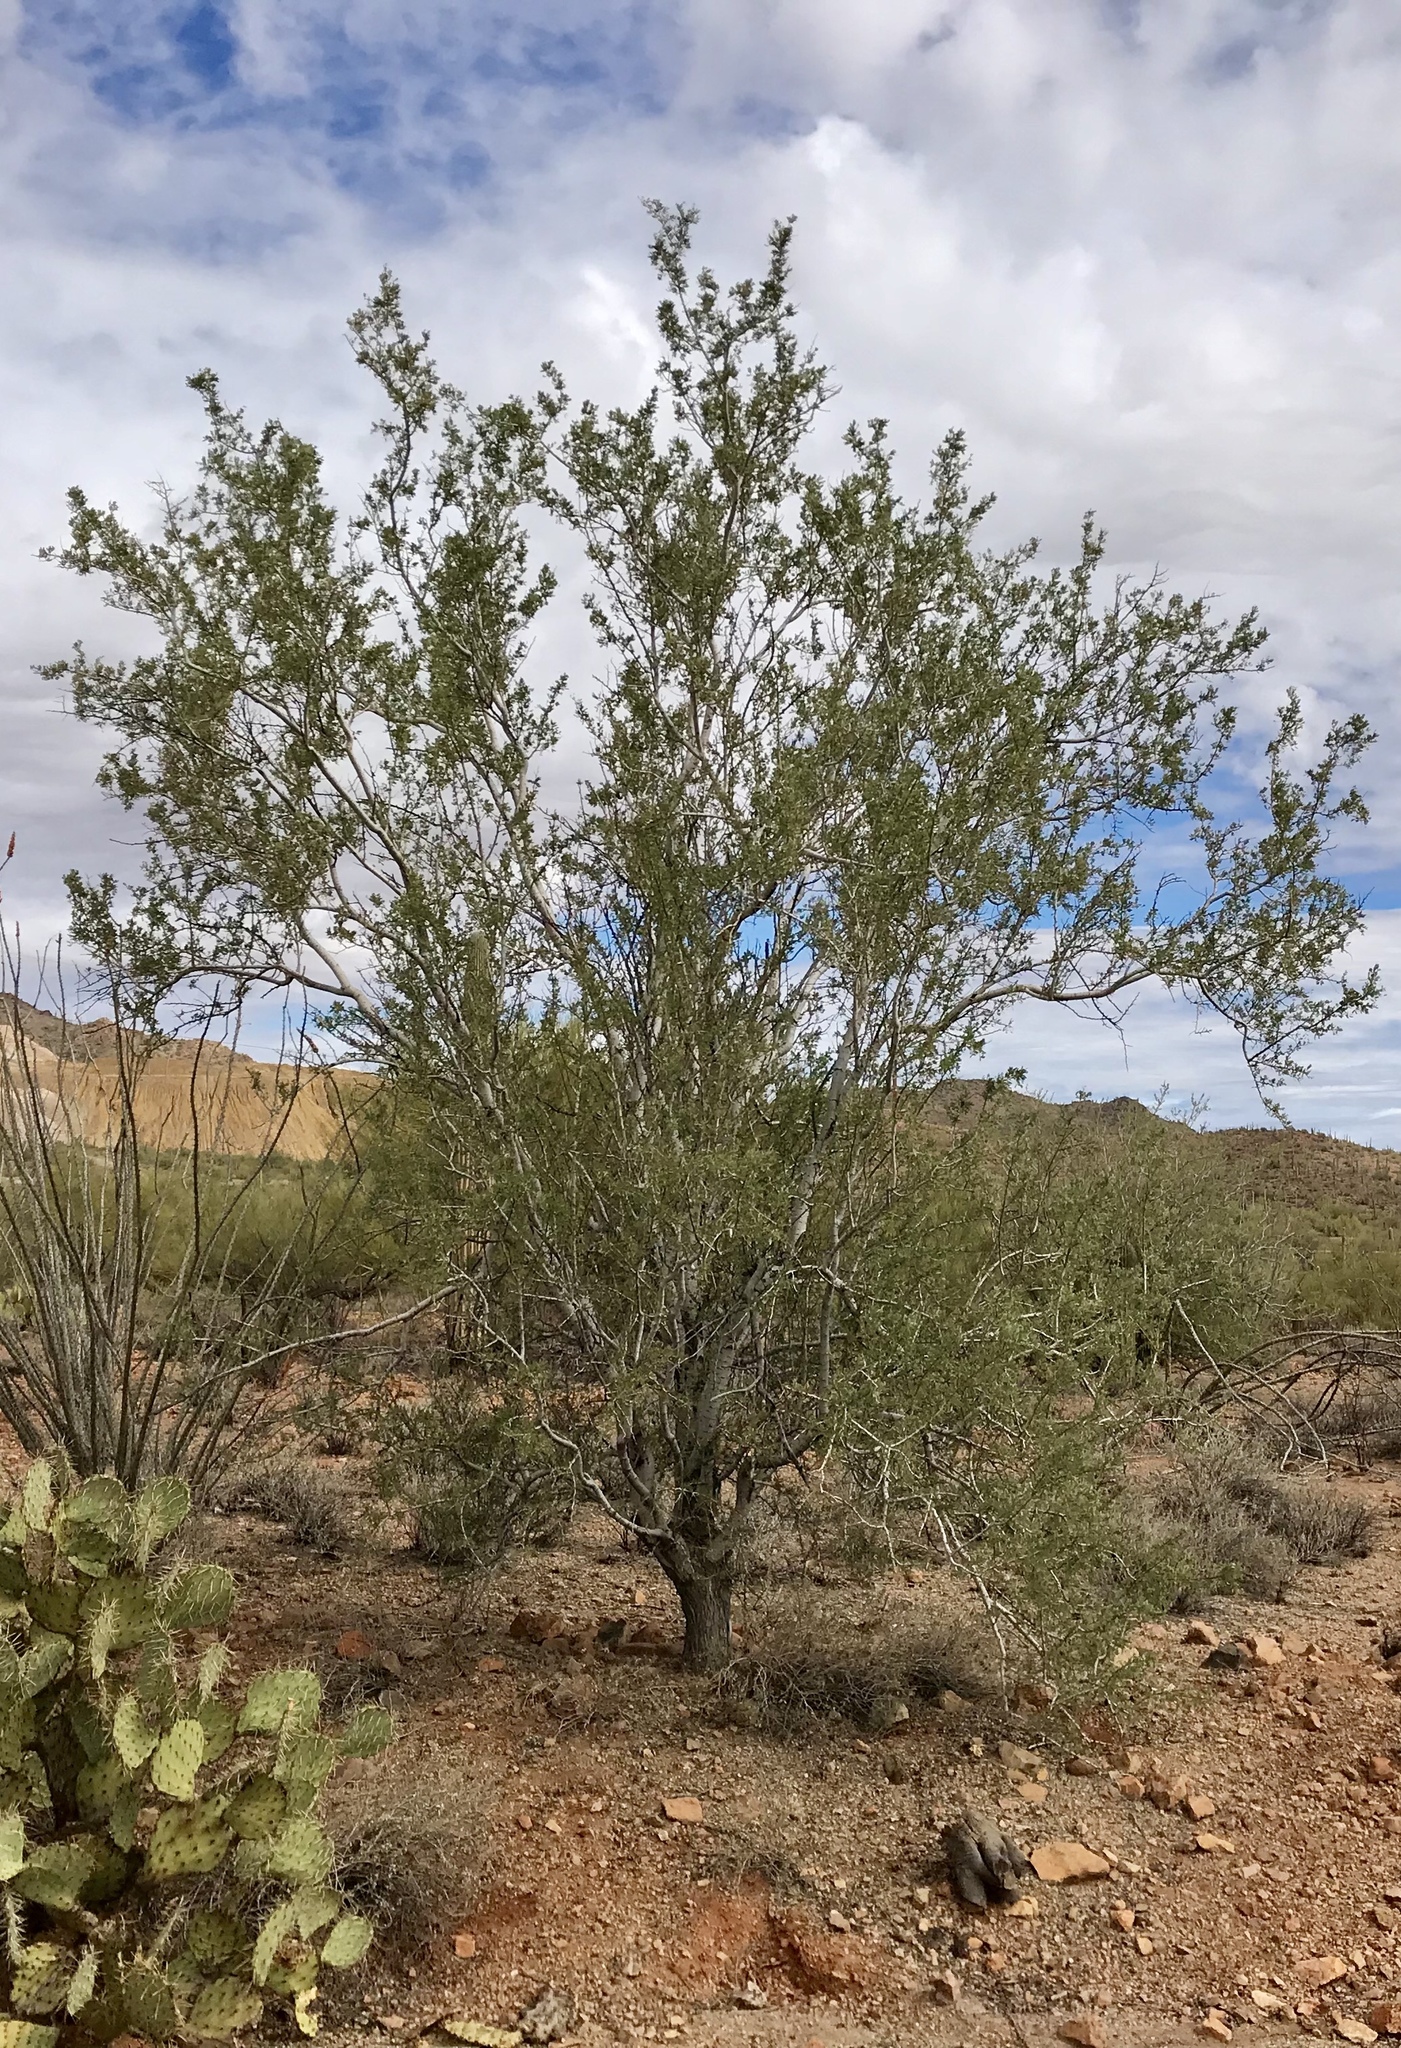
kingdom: Plantae
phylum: Tracheophyta
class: Magnoliopsida
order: Fabales
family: Fabaceae
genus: Olneya
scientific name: Olneya tesota
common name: Desert ironwood
